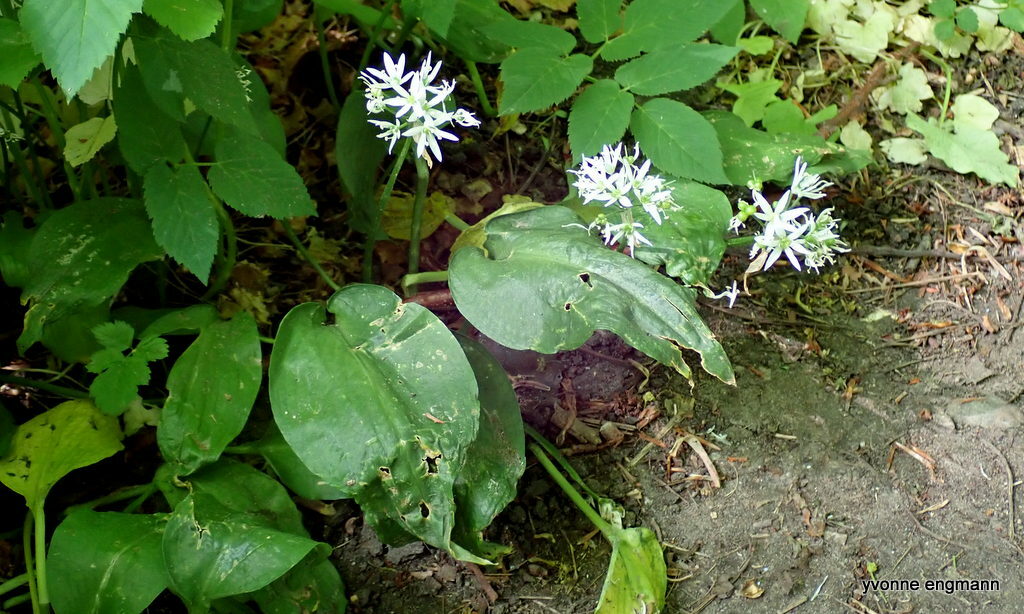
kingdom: Plantae
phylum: Tracheophyta
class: Liliopsida
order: Asparagales
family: Amaryllidaceae
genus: Allium
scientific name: Allium ursinum
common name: Ramsons
